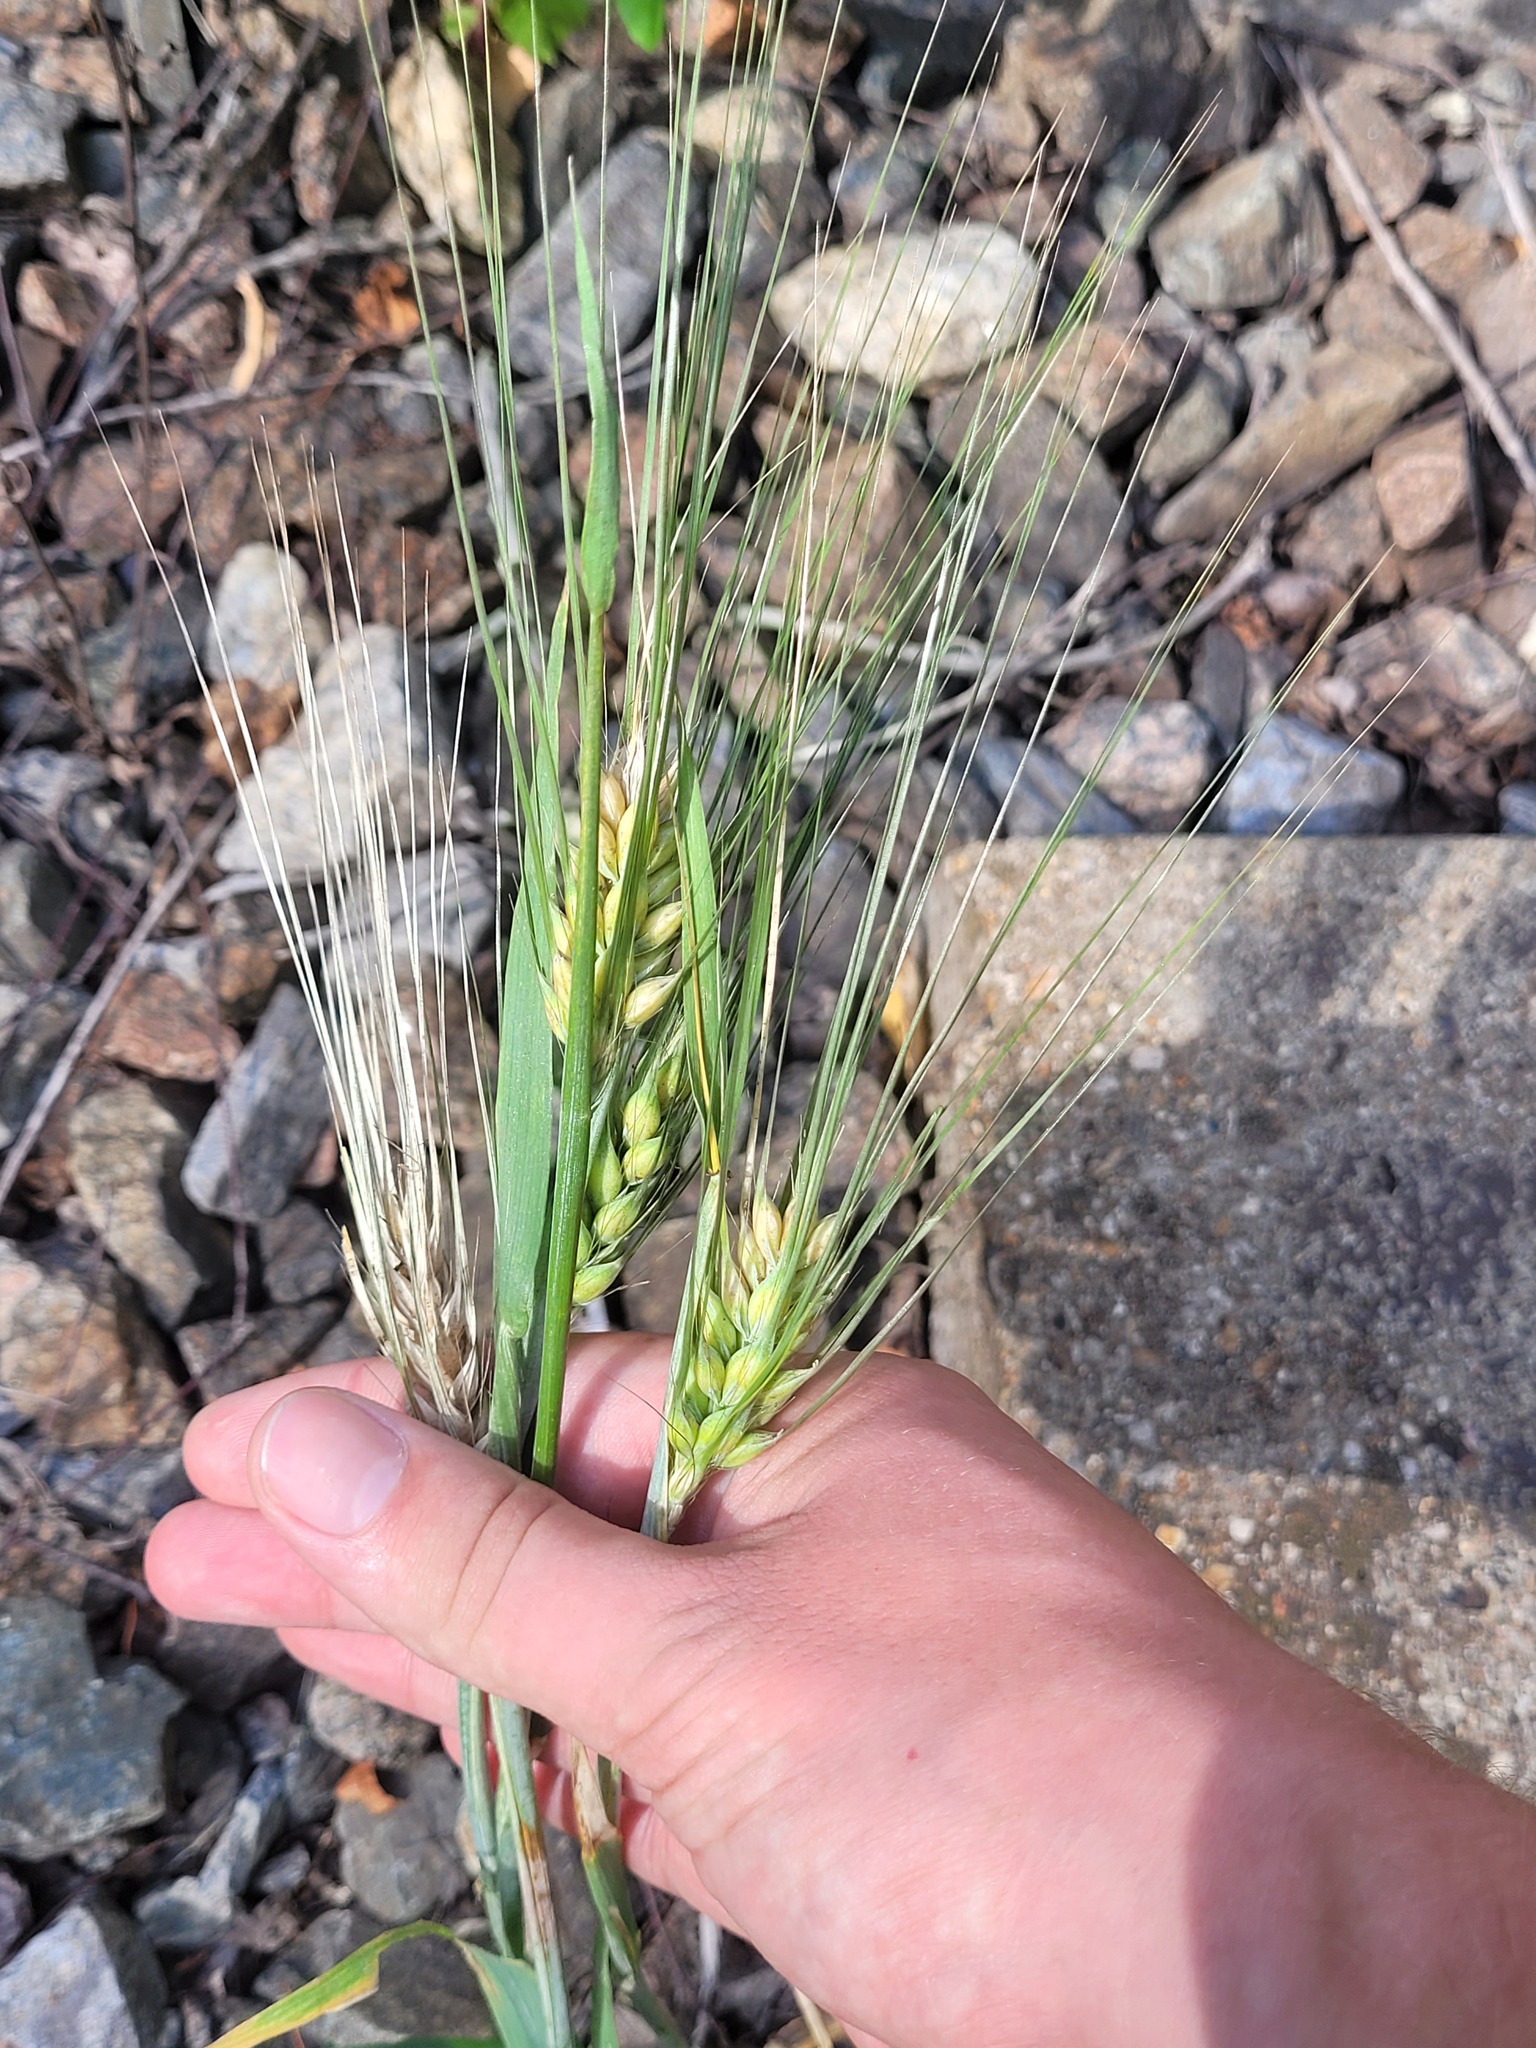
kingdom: Plantae
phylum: Tracheophyta
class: Liliopsida
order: Poales
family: Poaceae
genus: Hordeum
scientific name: Hordeum vulgare
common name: Common barley
